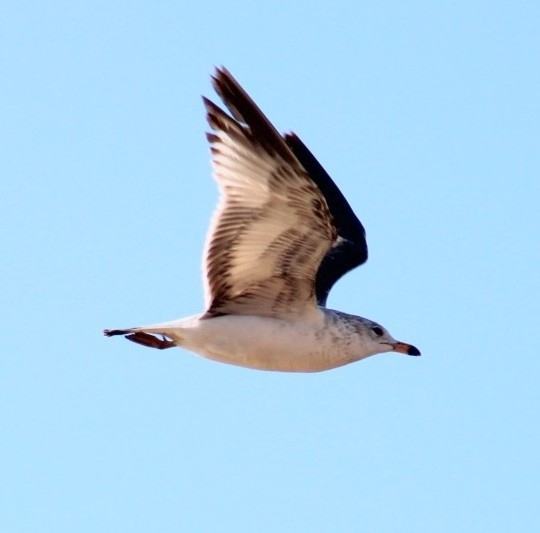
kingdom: Animalia
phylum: Chordata
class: Aves
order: Charadriiformes
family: Laridae
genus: Larus
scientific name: Larus delawarensis
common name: Ring-billed gull
